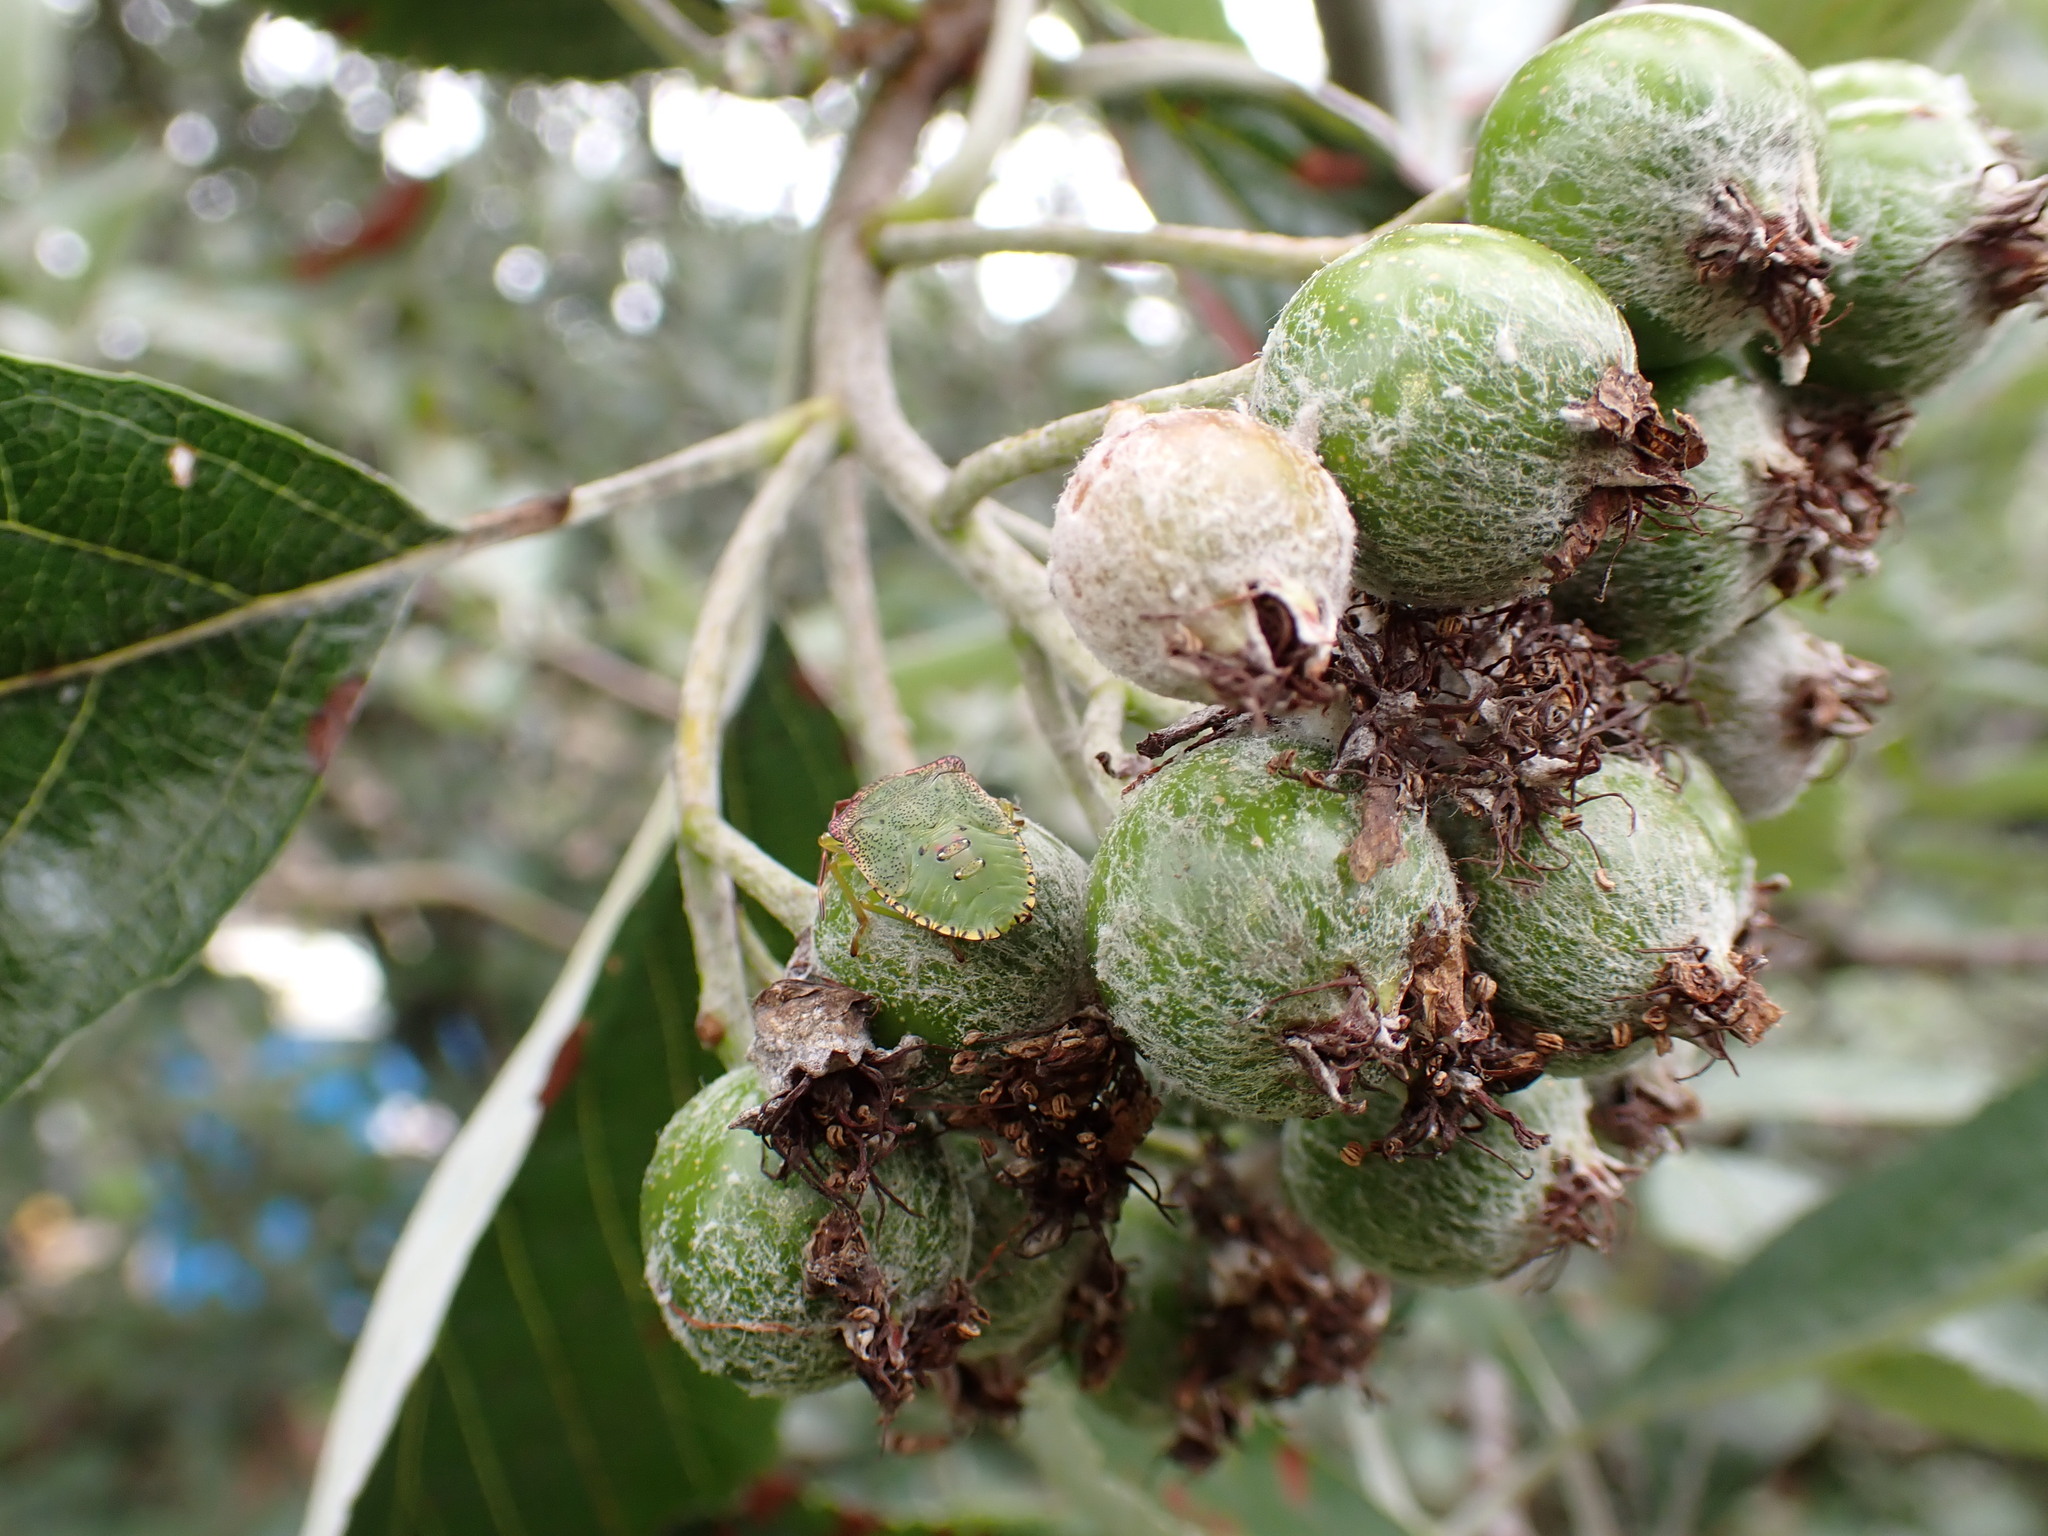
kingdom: Animalia
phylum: Arthropoda
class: Insecta
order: Hemiptera
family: Acanthosomatidae
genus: Acanthosoma
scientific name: Acanthosoma haemorrhoidale
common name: Hawthorn shieldbug
